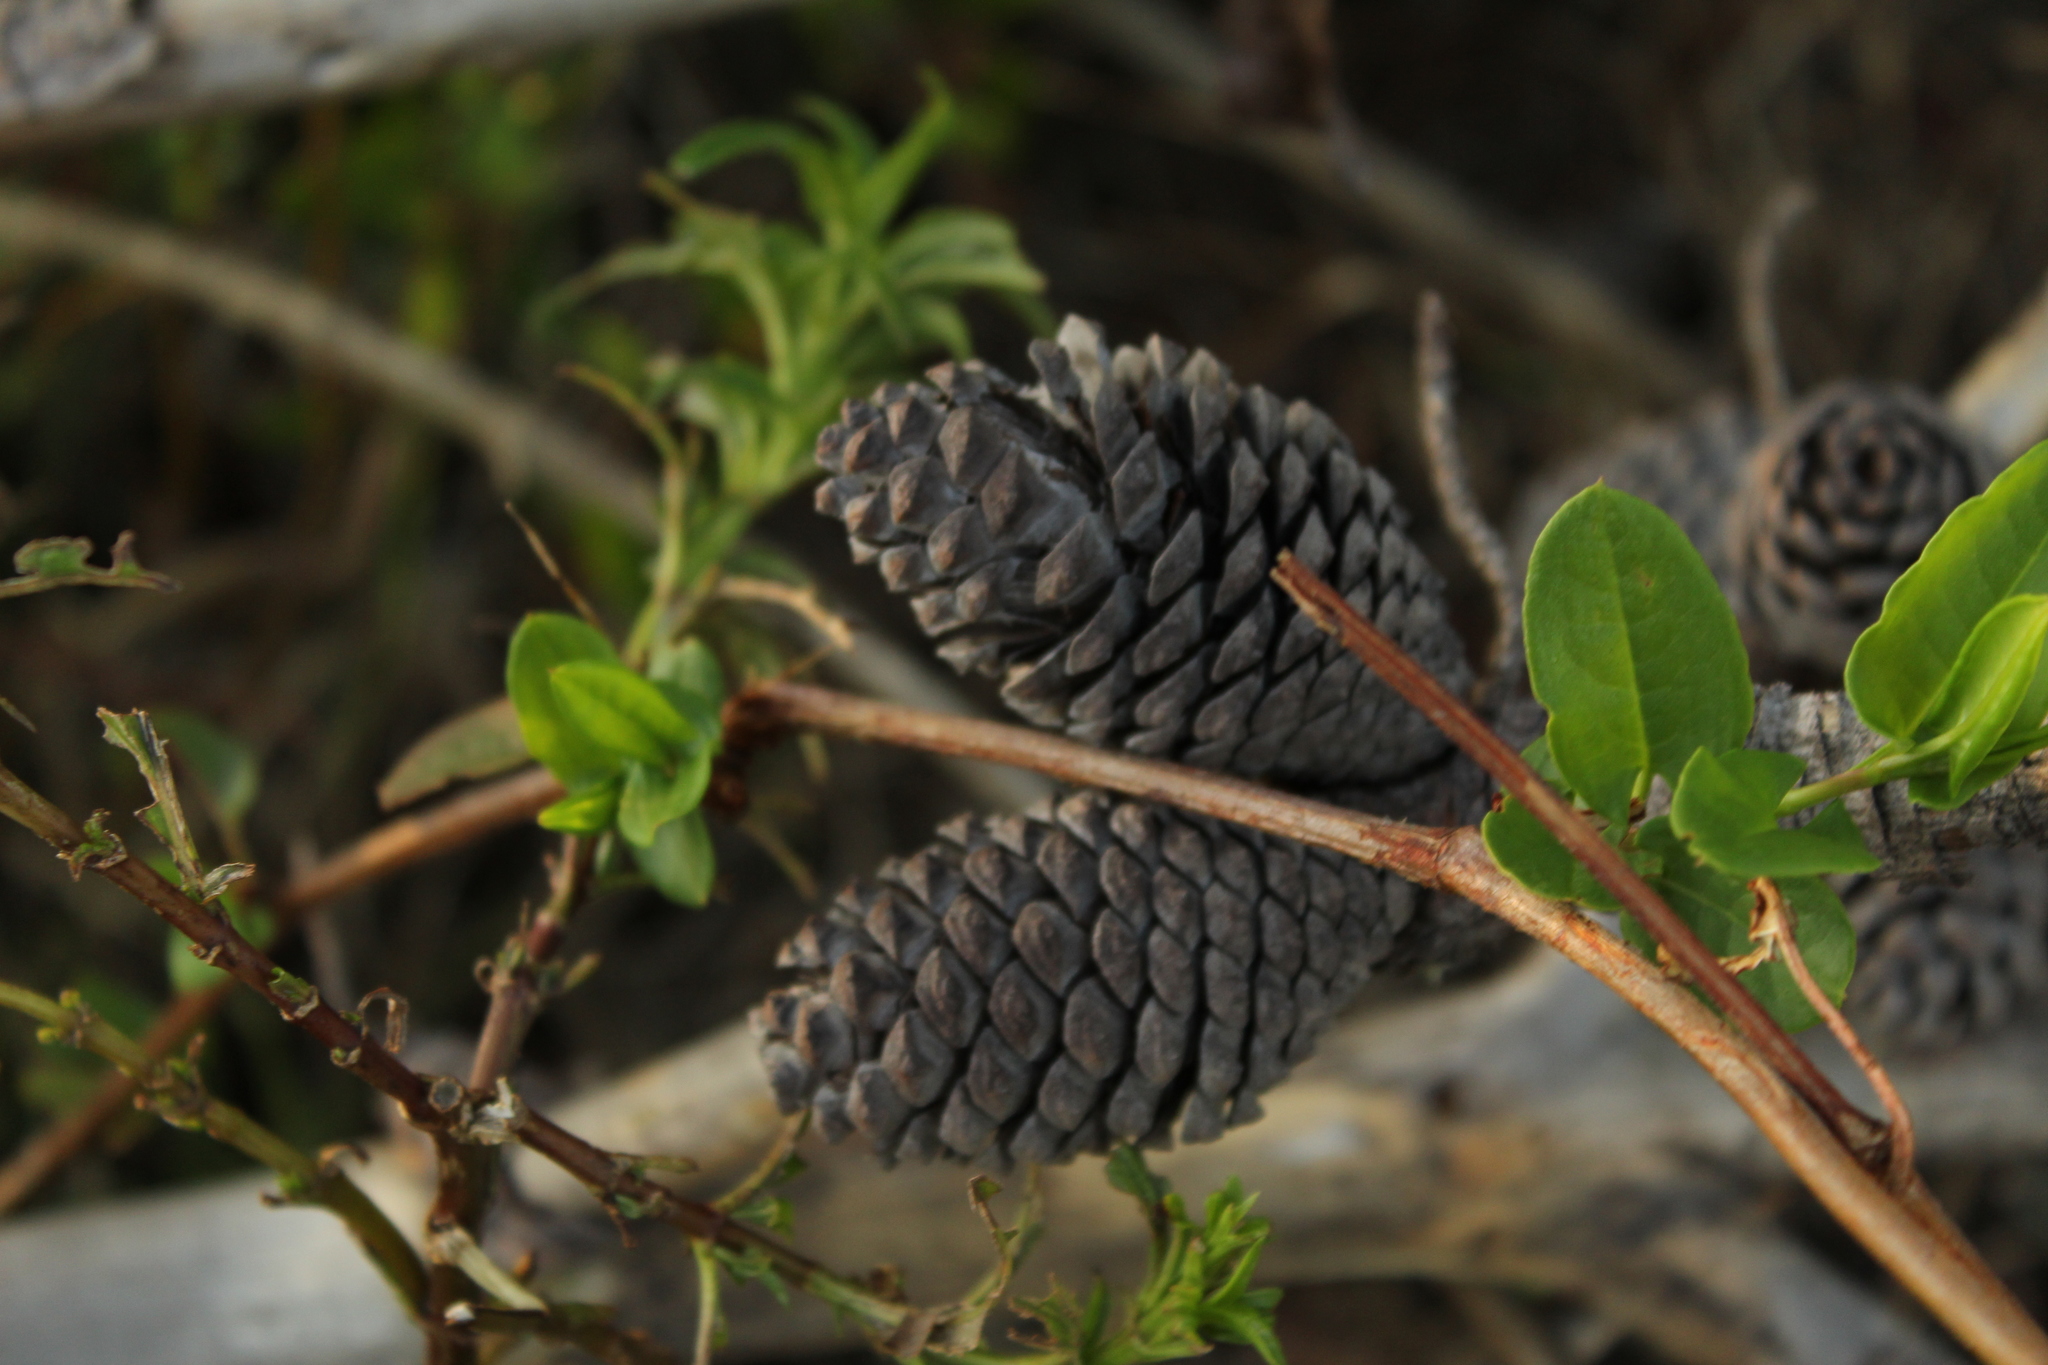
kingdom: Plantae
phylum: Tracheophyta
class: Pinopsida
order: Pinales
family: Pinaceae
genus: Pinus
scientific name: Pinus patula
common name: Mexican weeping pine
